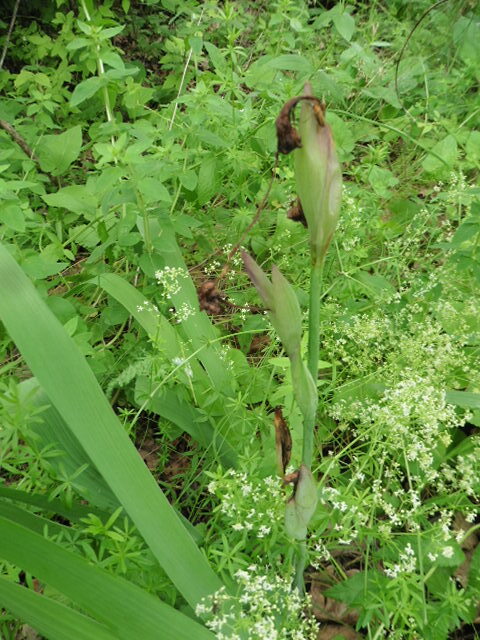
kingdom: Plantae
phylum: Tracheophyta
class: Liliopsida
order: Asparagales
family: Iridaceae
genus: Iris
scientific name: Iris aphylla
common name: Stool iris
